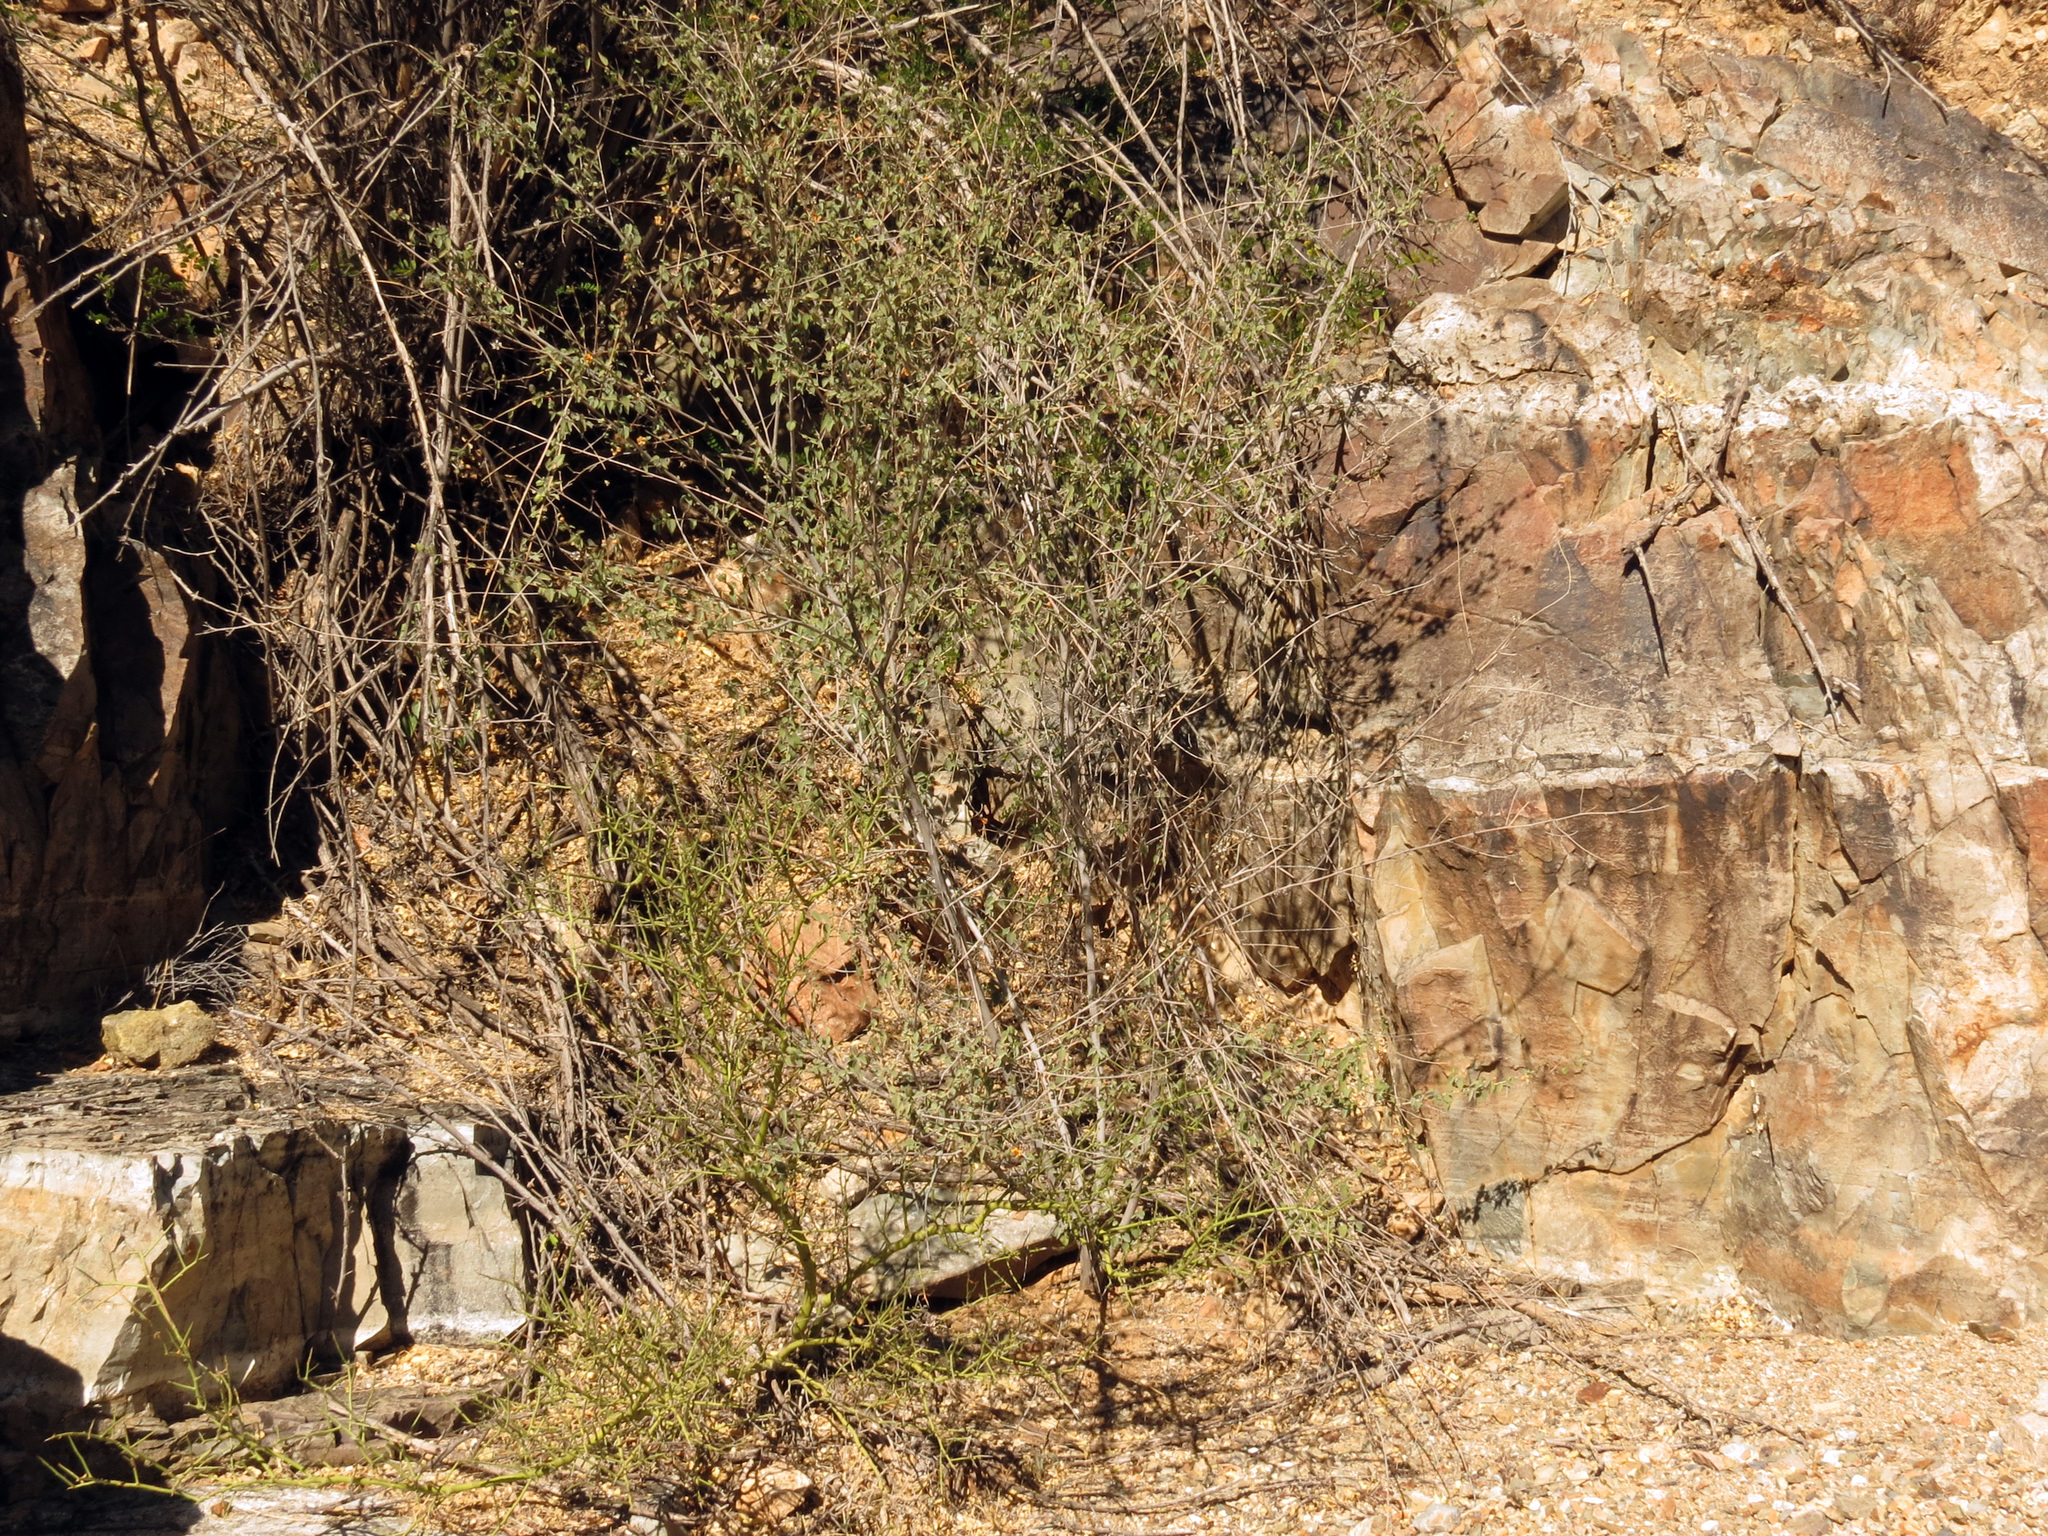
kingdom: Plantae
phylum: Tracheophyta
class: Magnoliopsida
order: Malvales
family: Malvaceae
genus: Abutilon
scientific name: Abutilon incanum
